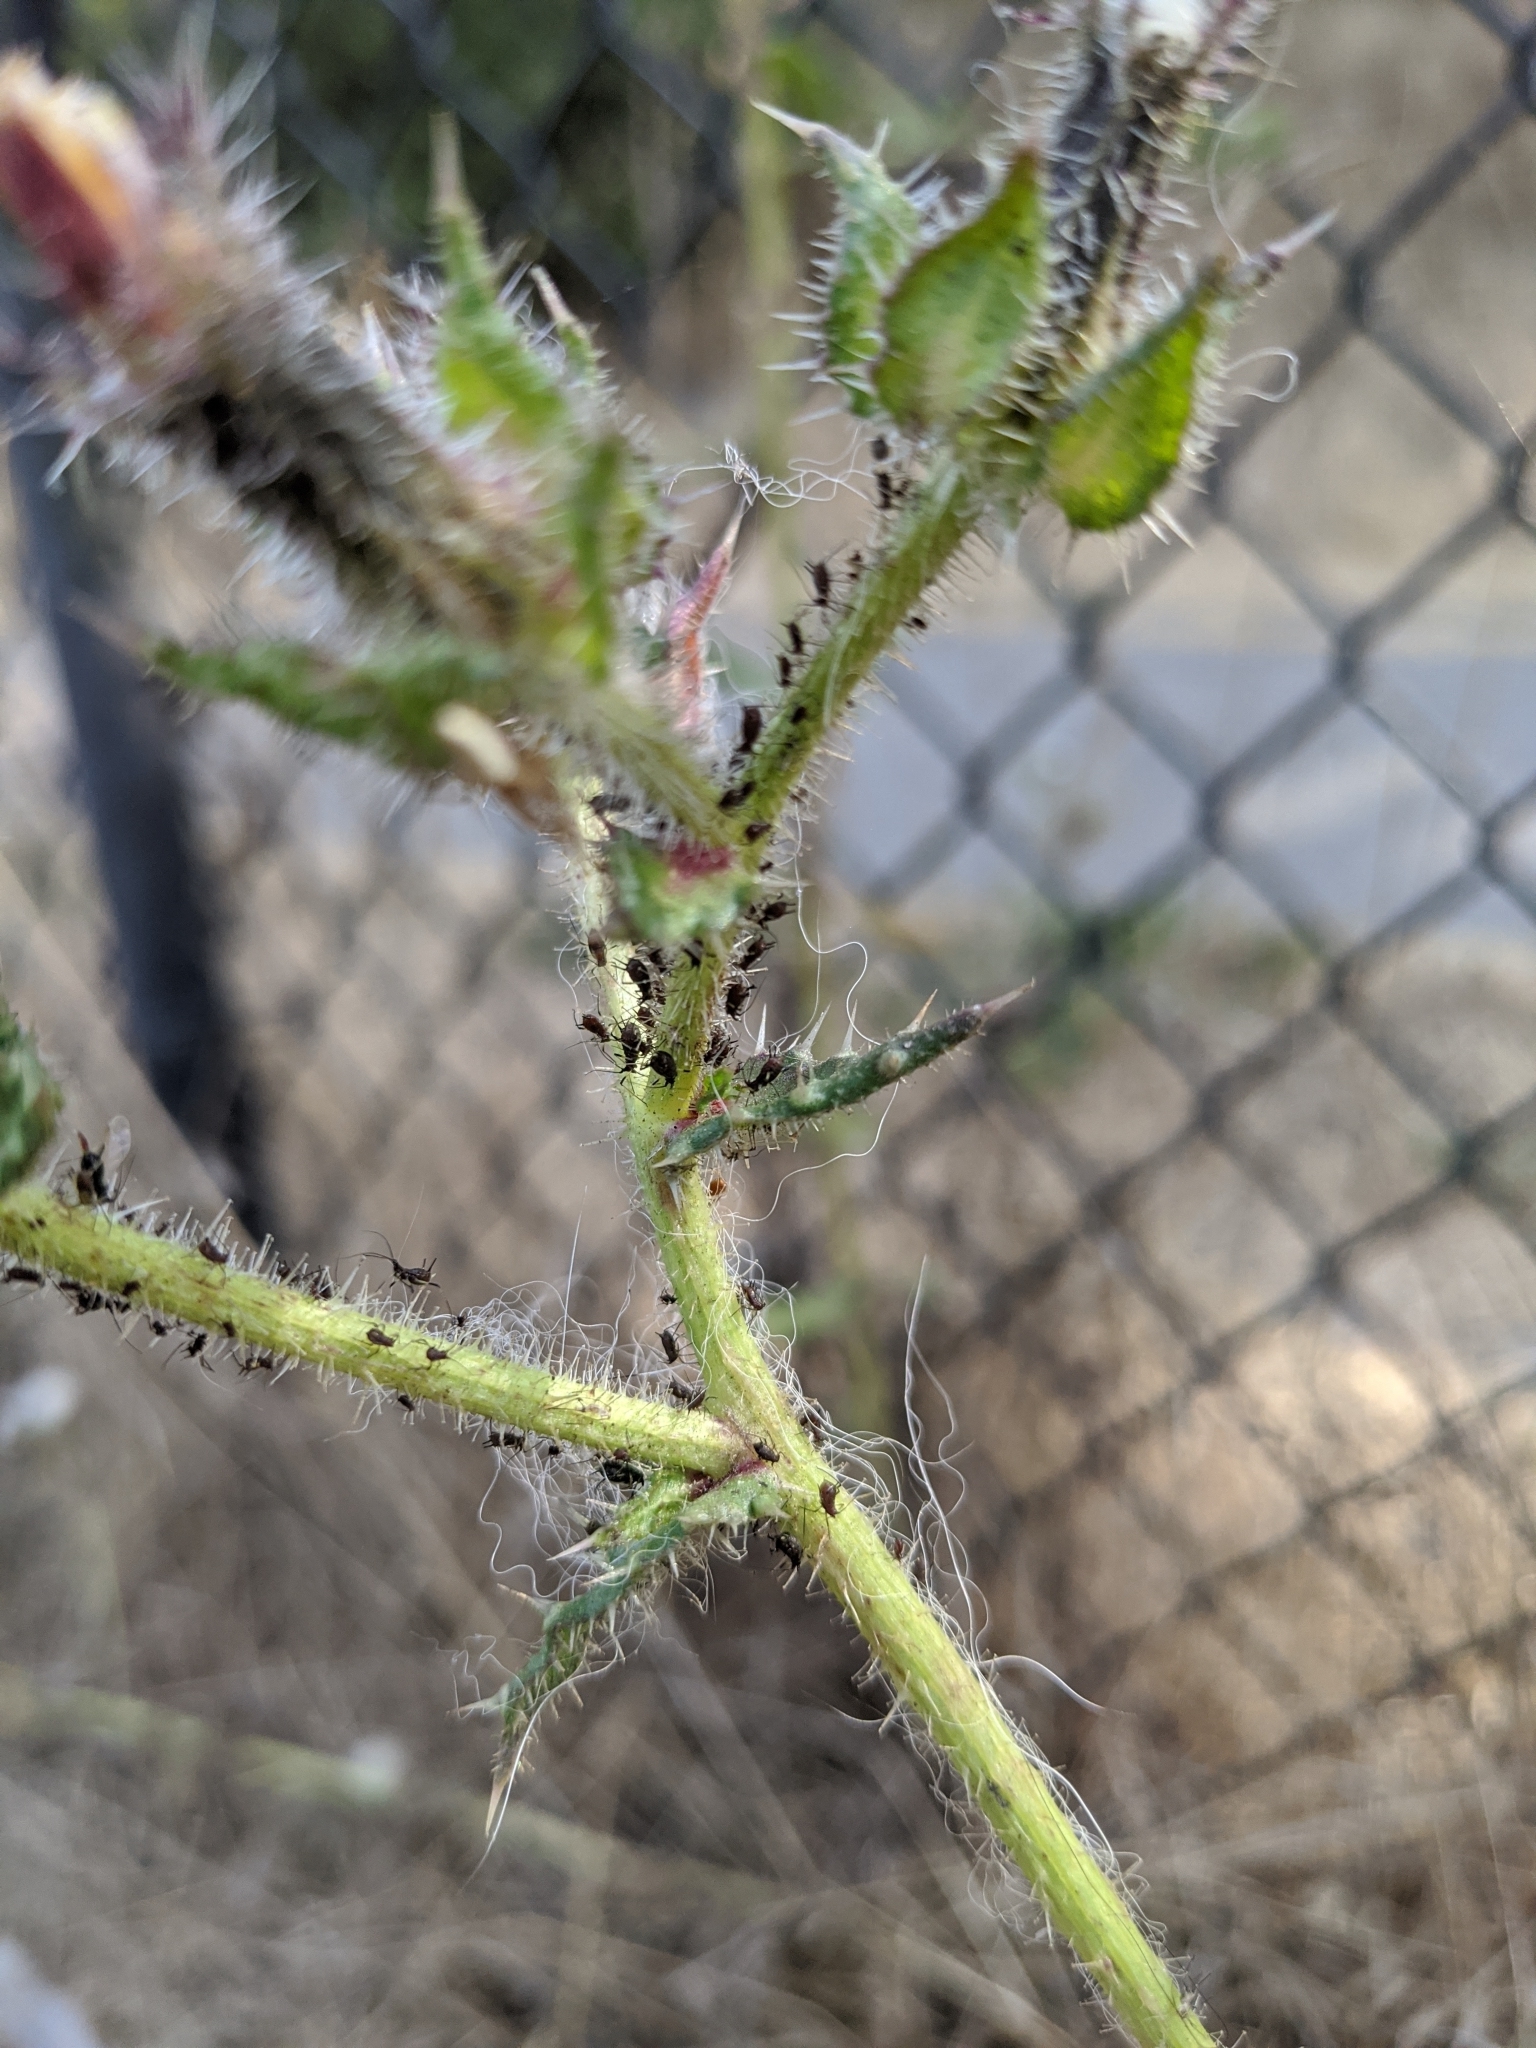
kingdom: Plantae
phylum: Tracheophyta
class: Magnoliopsida
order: Asterales
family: Asteraceae
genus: Helminthotheca
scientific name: Helminthotheca echioides
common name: Ox-tongue
